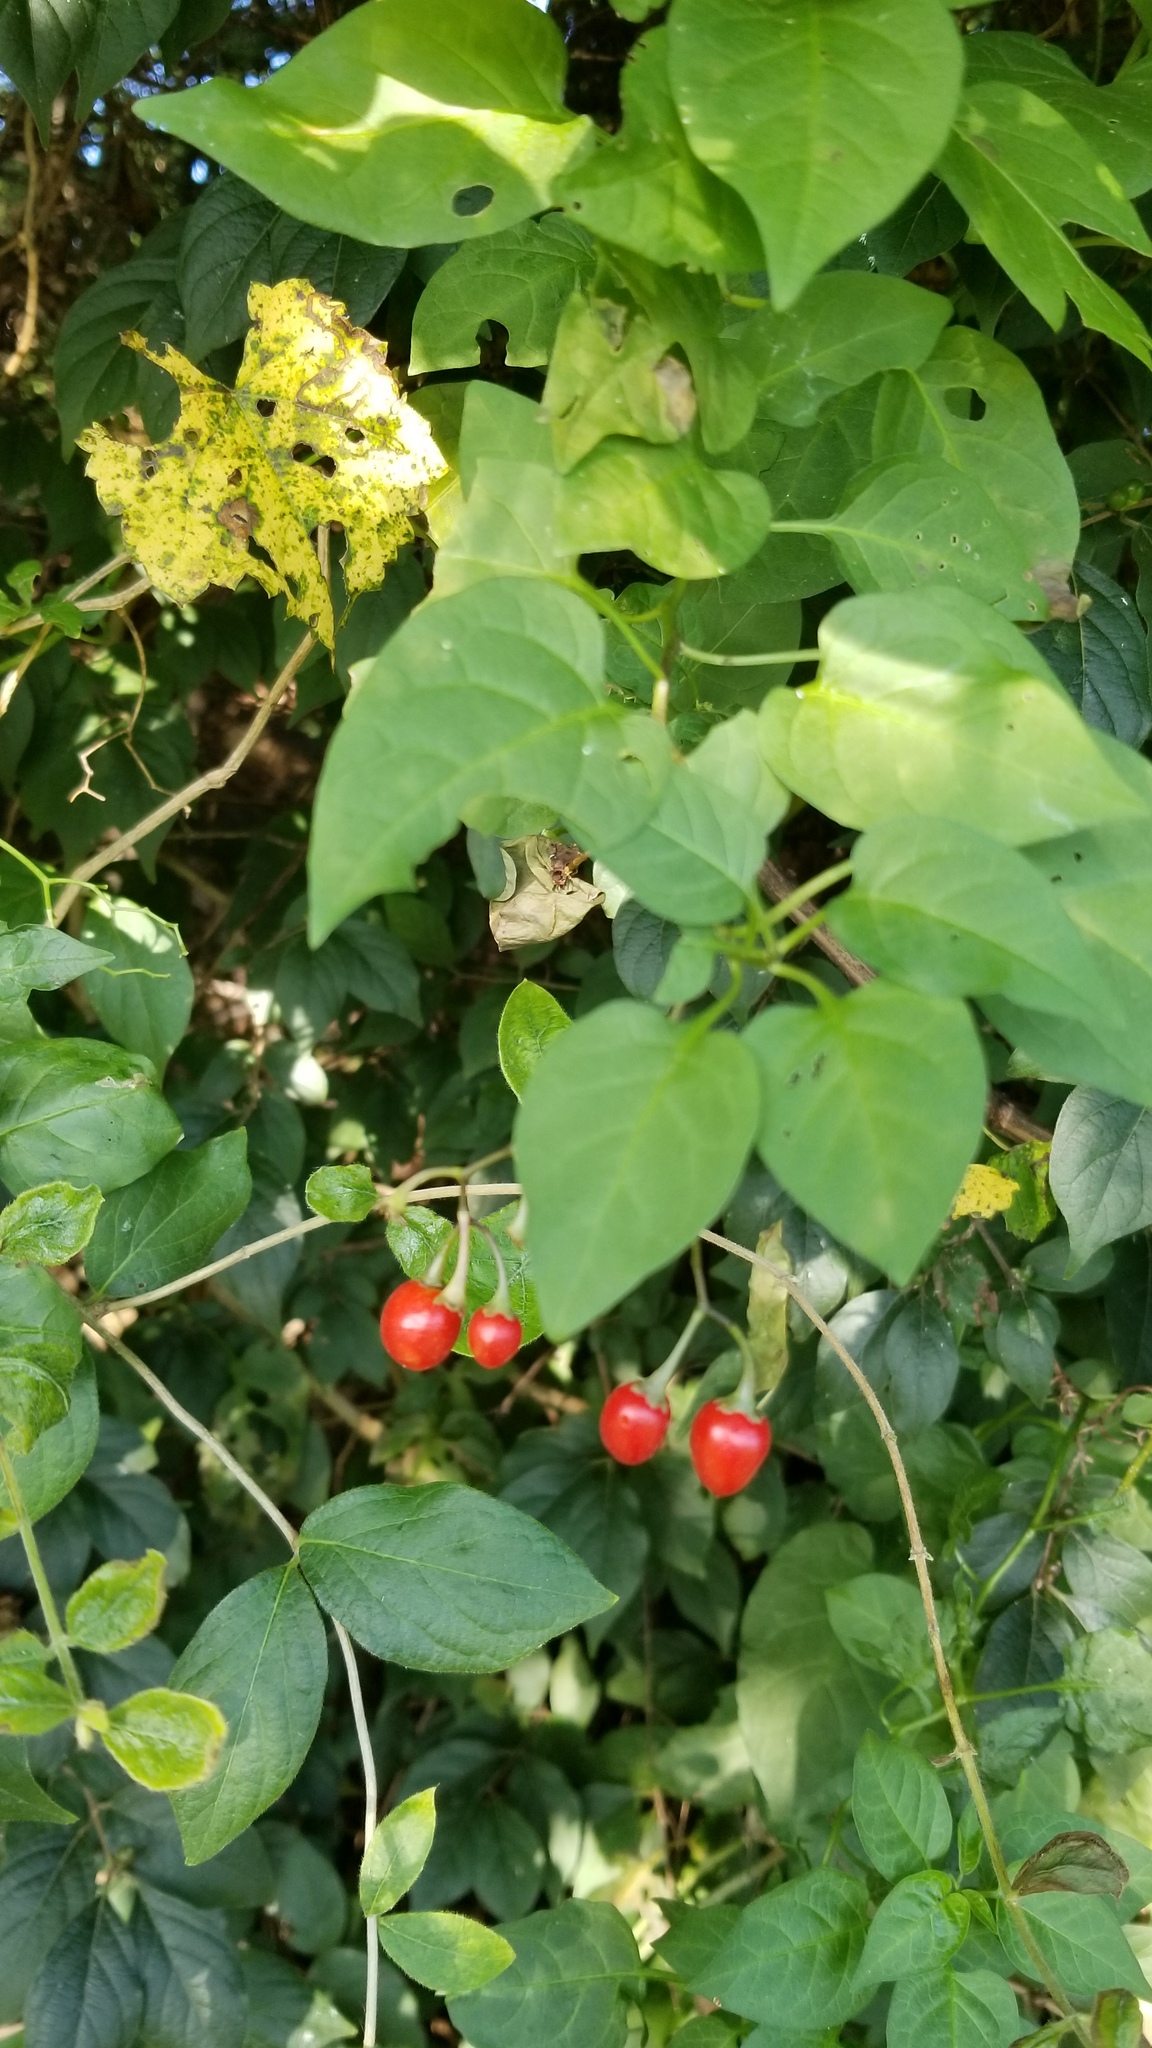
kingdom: Plantae
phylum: Tracheophyta
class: Magnoliopsida
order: Solanales
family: Solanaceae
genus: Solanum
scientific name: Solanum dulcamara
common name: Climbing nightshade
